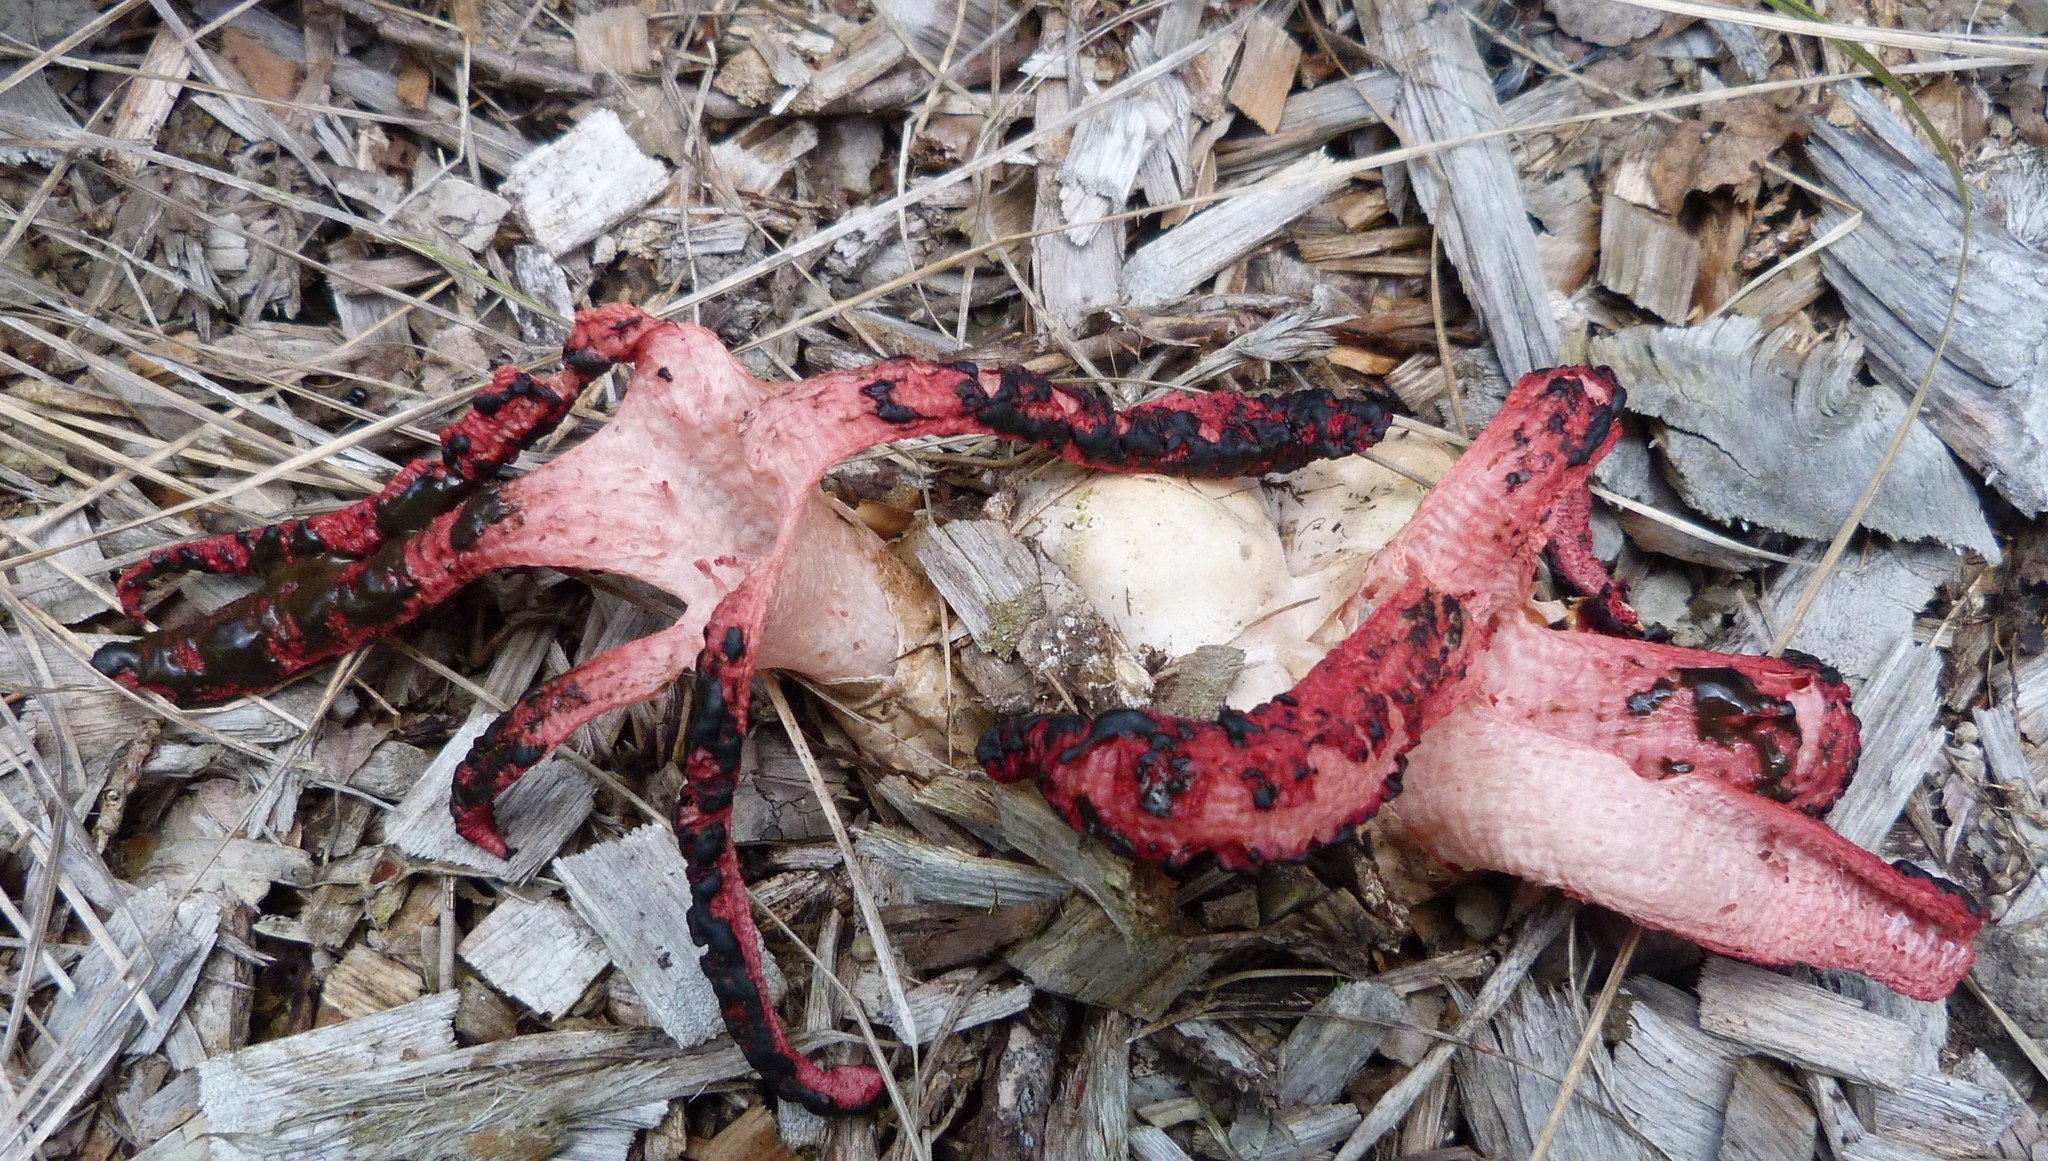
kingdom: Fungi
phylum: Basidiomycota
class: Agaricomycetes
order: Phallales
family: Phallaceae
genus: Clathrus
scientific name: Clathrus archeri
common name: Devil's fingers
